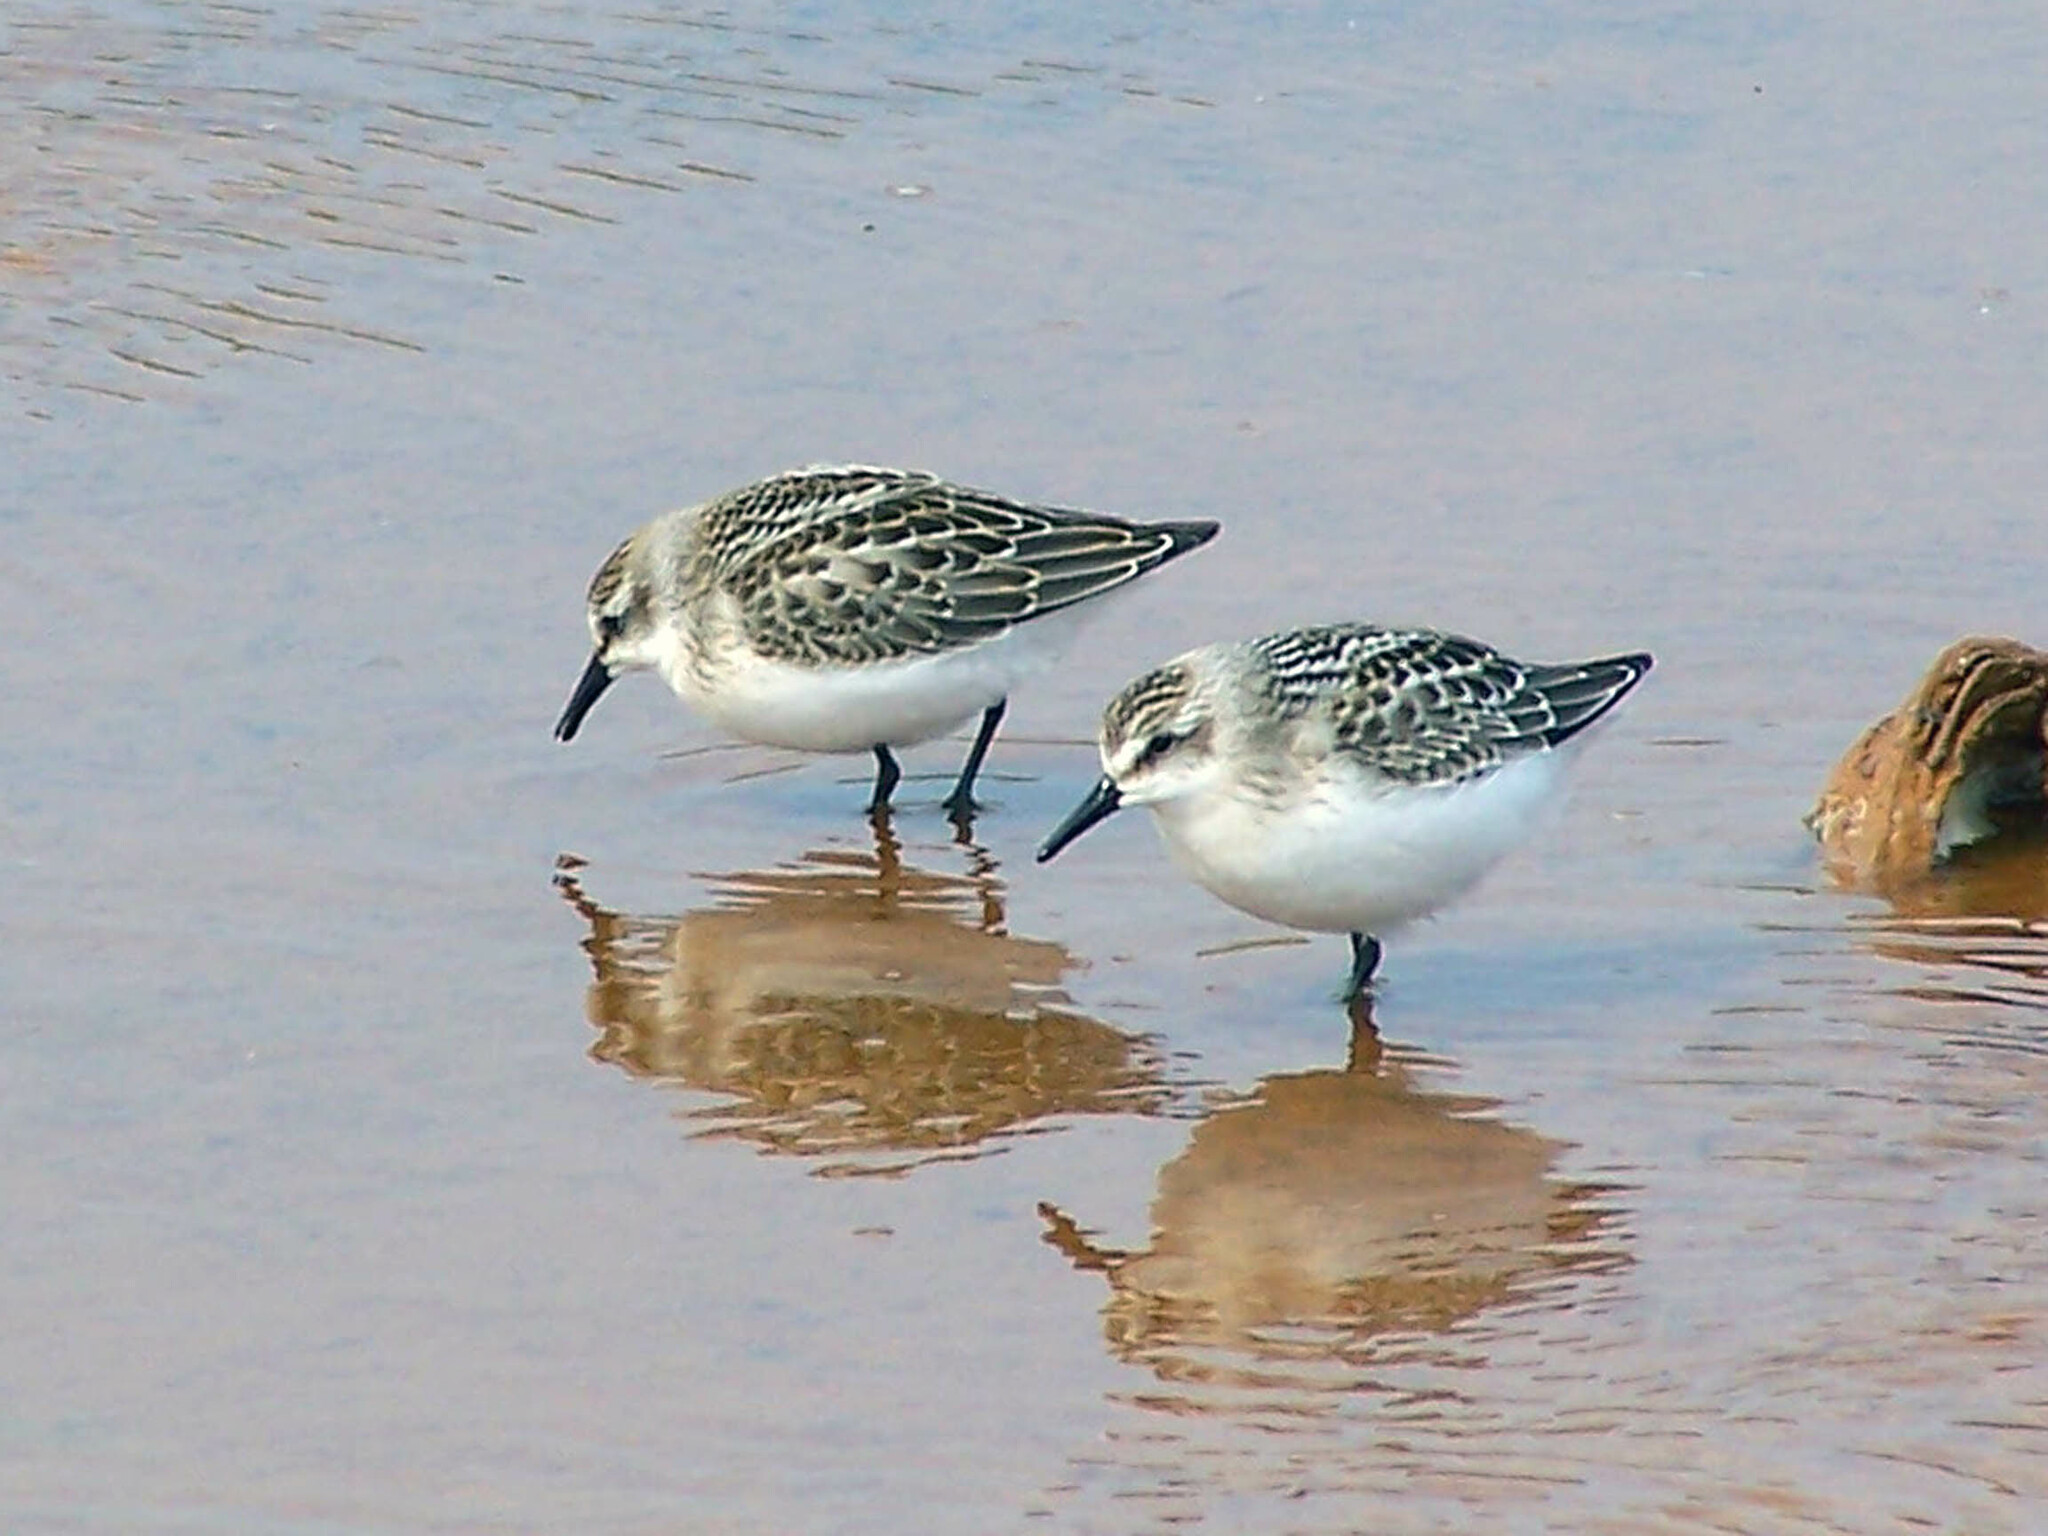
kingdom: Animalia
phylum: Chordata
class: Aves
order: Charadriiformes
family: Scolopacidae
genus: Calidris
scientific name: Calidris pusilla
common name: Semipalmated sandpiper
